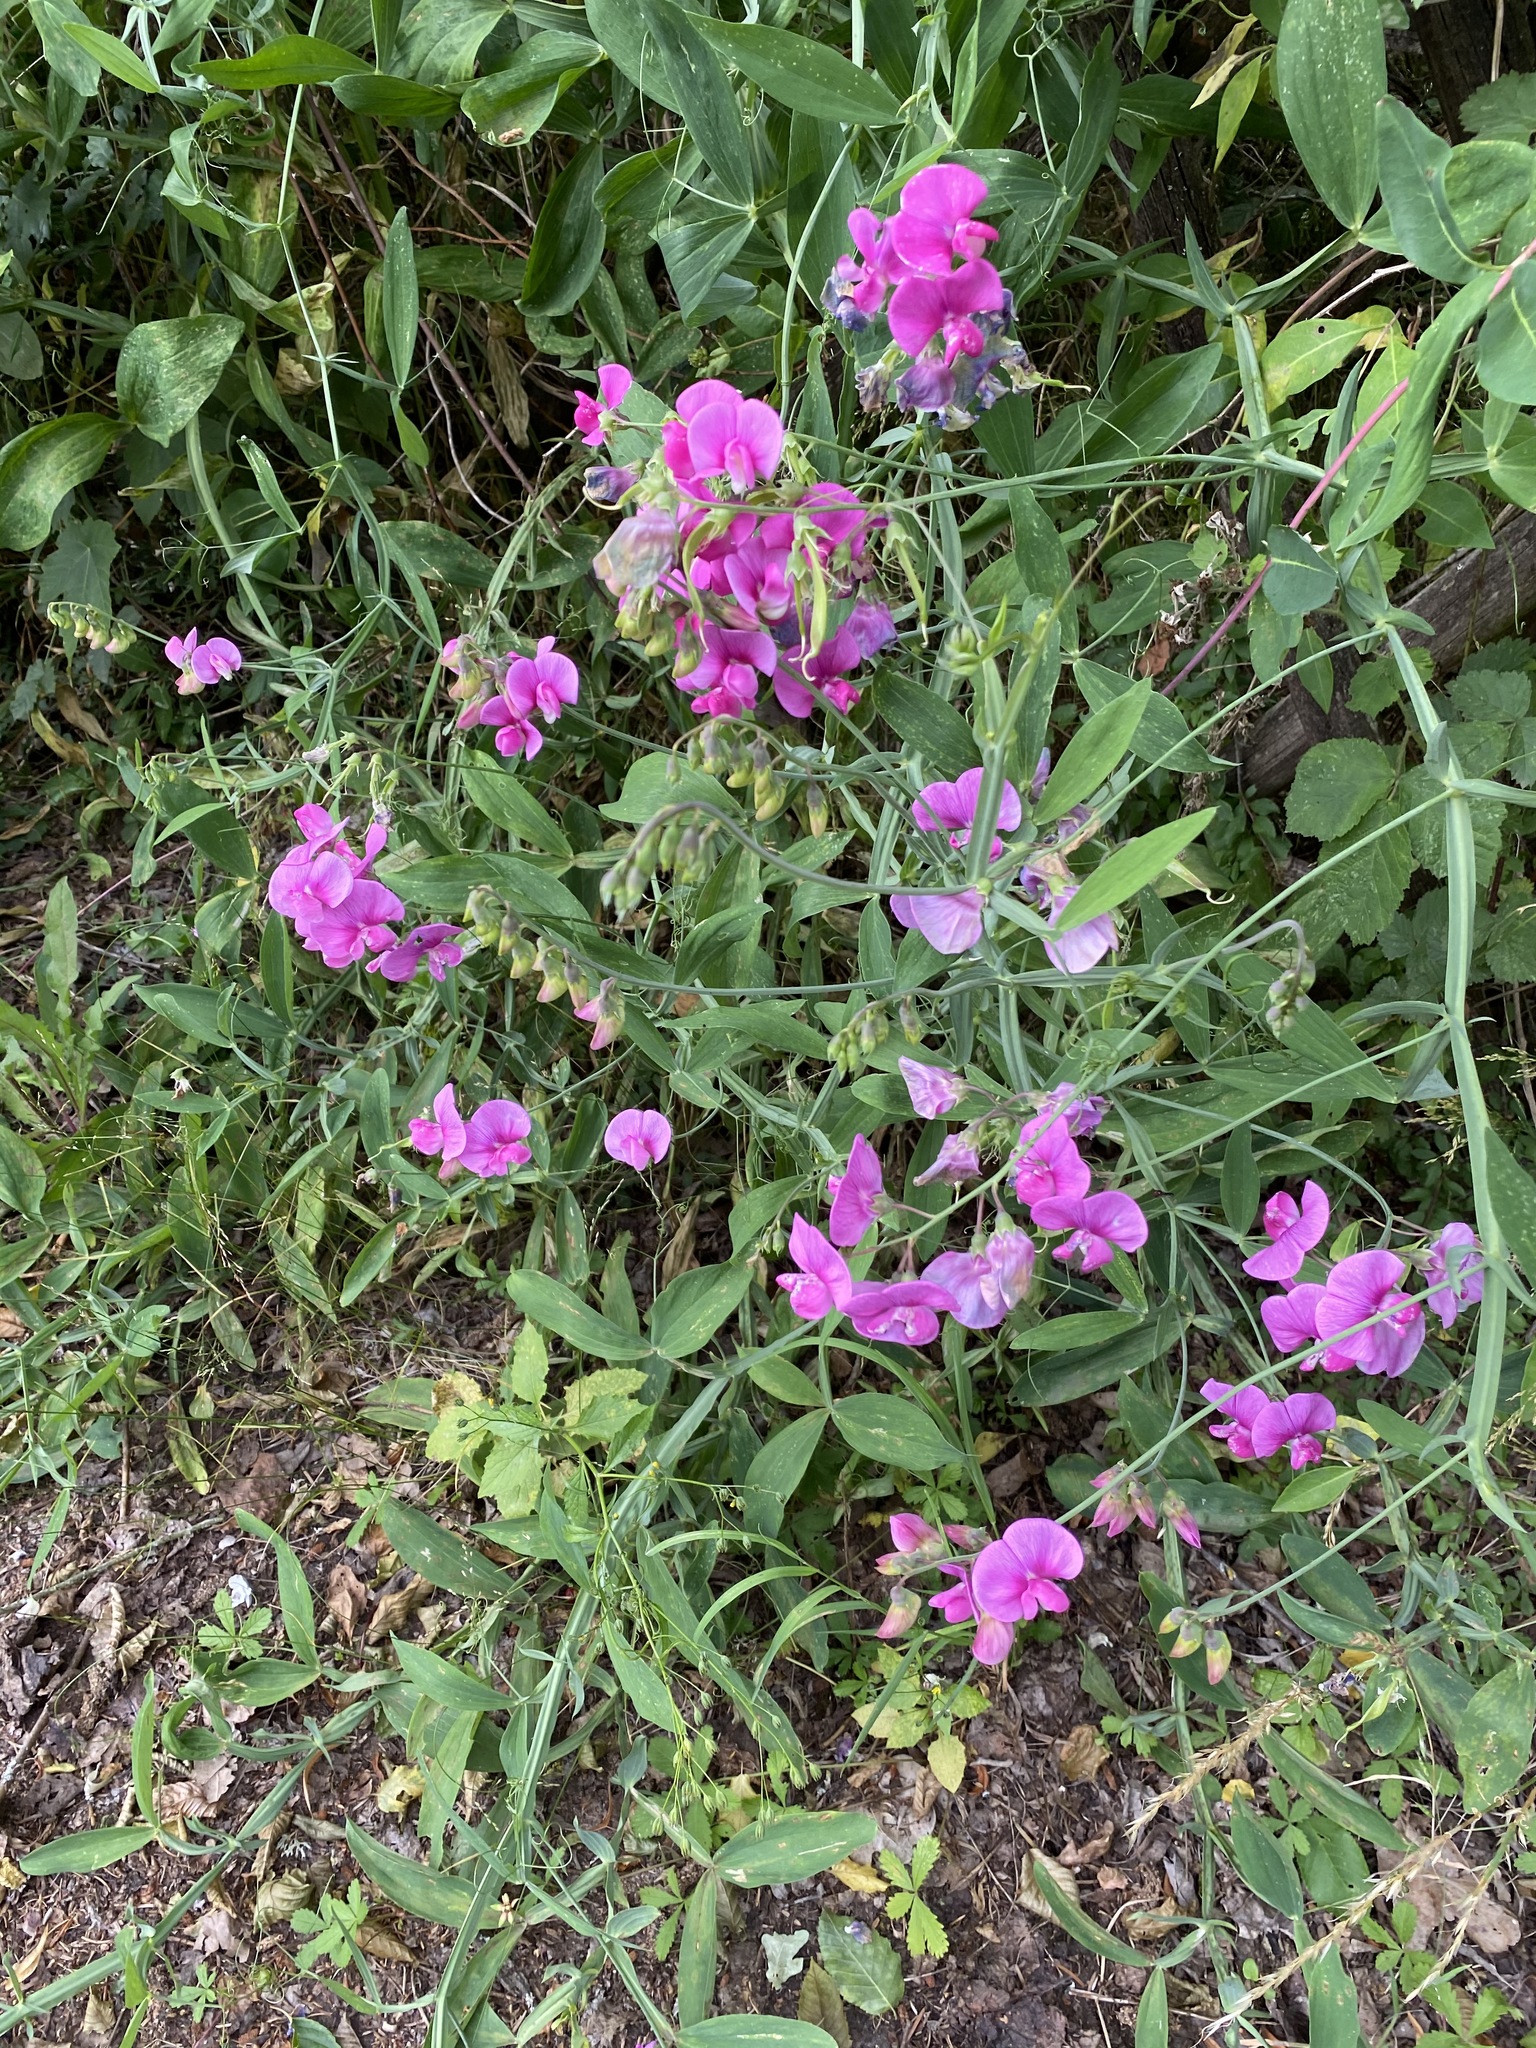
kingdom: Plantae
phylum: Tracheophyta
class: Magnoliopsida
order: Fabales
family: Fabaceae
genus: Lathyrus
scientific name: Lathyrus latifolius
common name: Perennial pea
